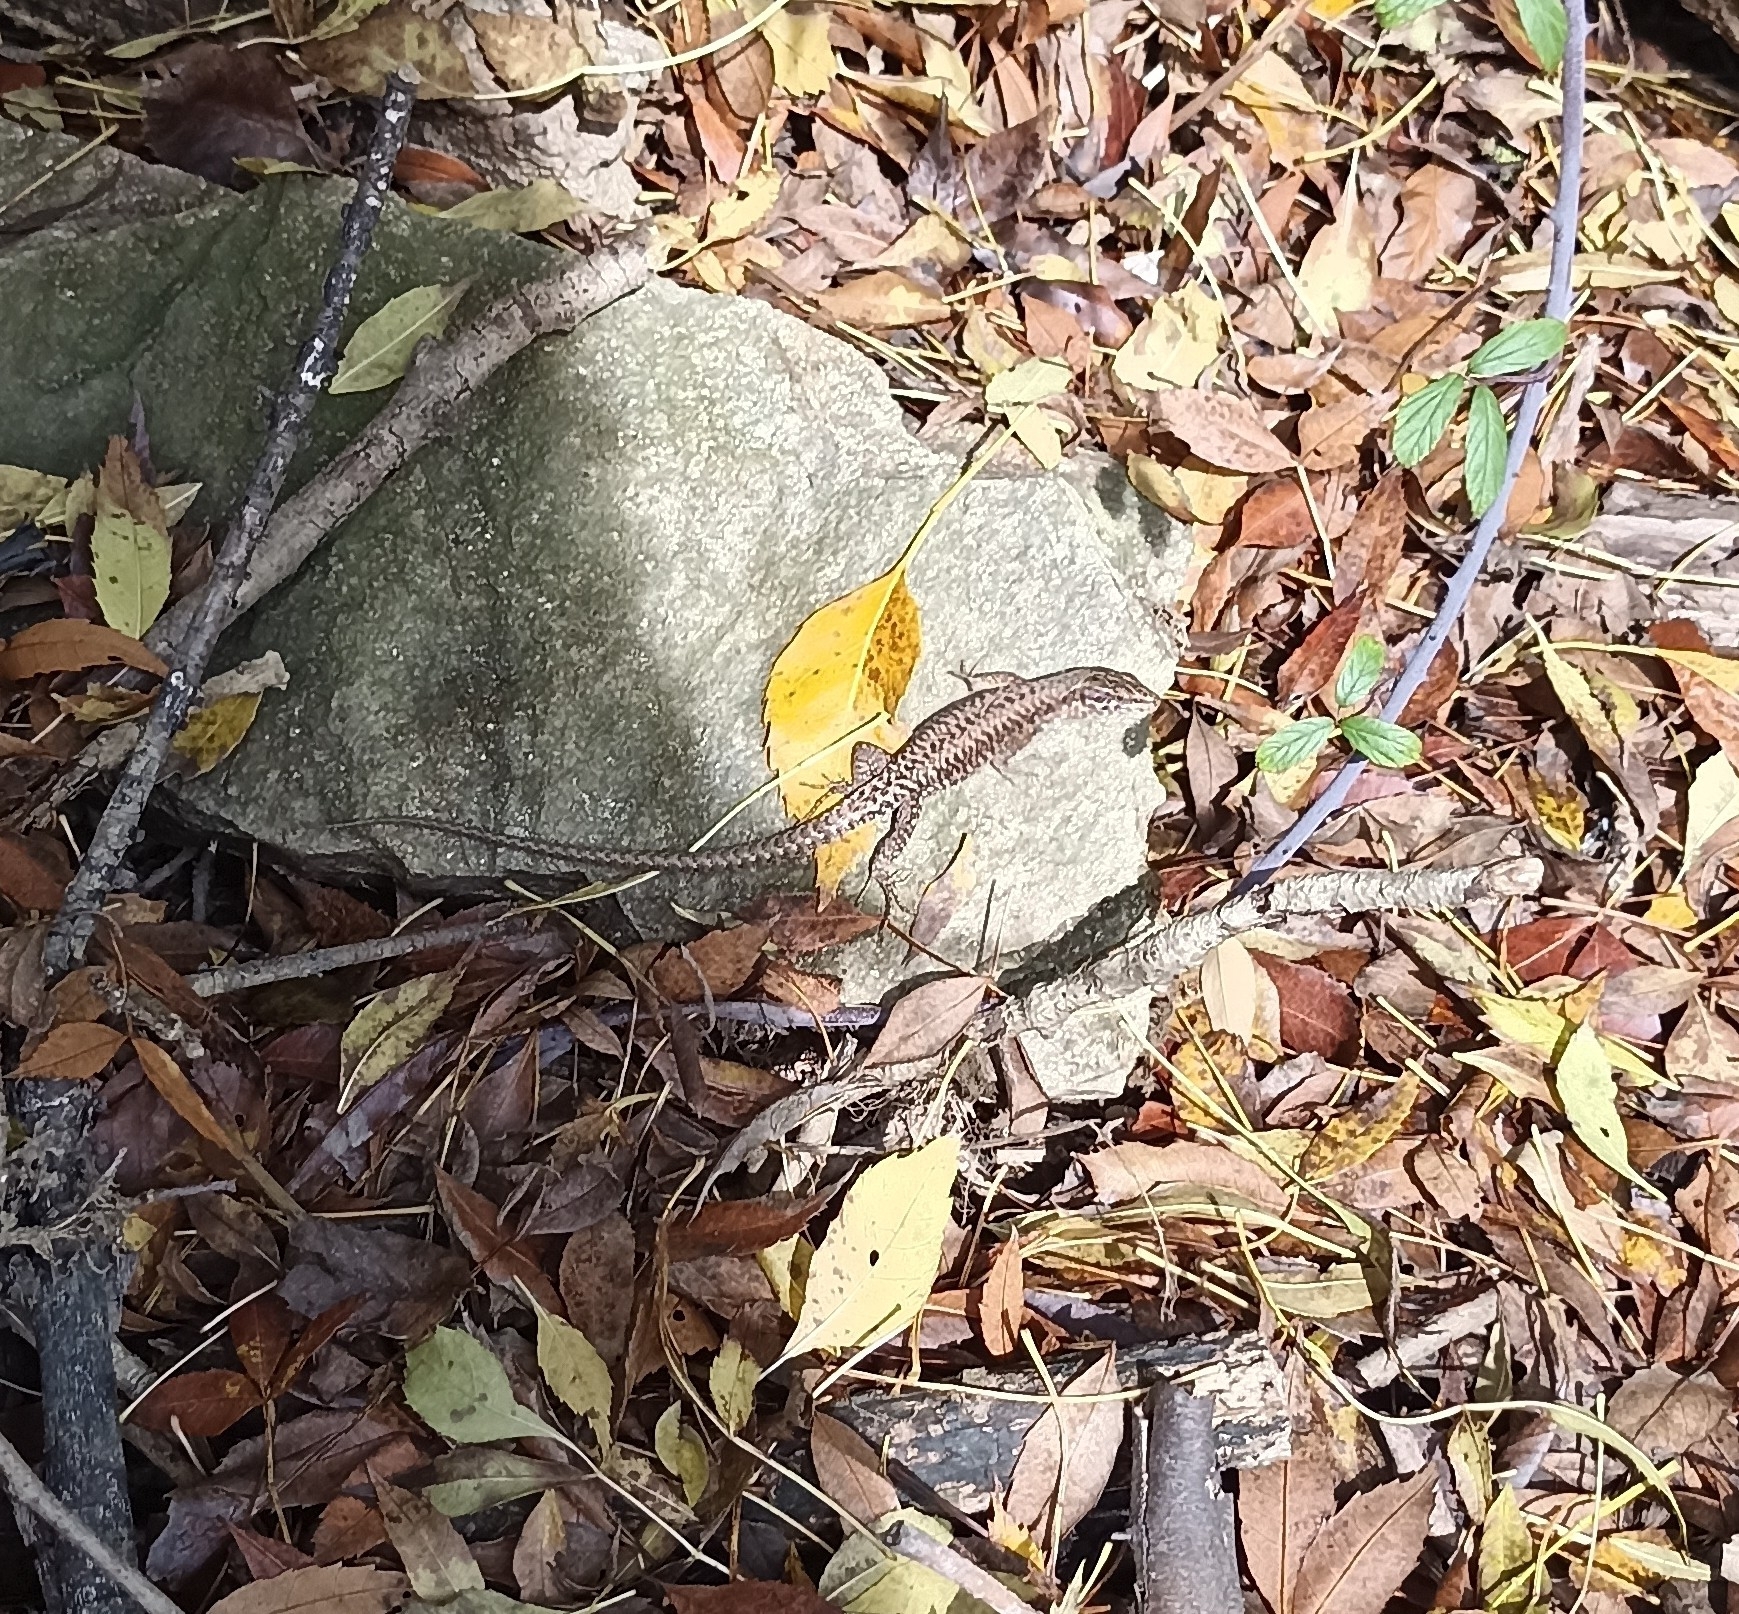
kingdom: Animalia
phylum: Chordata
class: Squamata
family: Lacertidae
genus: Podarcis
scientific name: Podarcis muralis
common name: Common wall lizard
